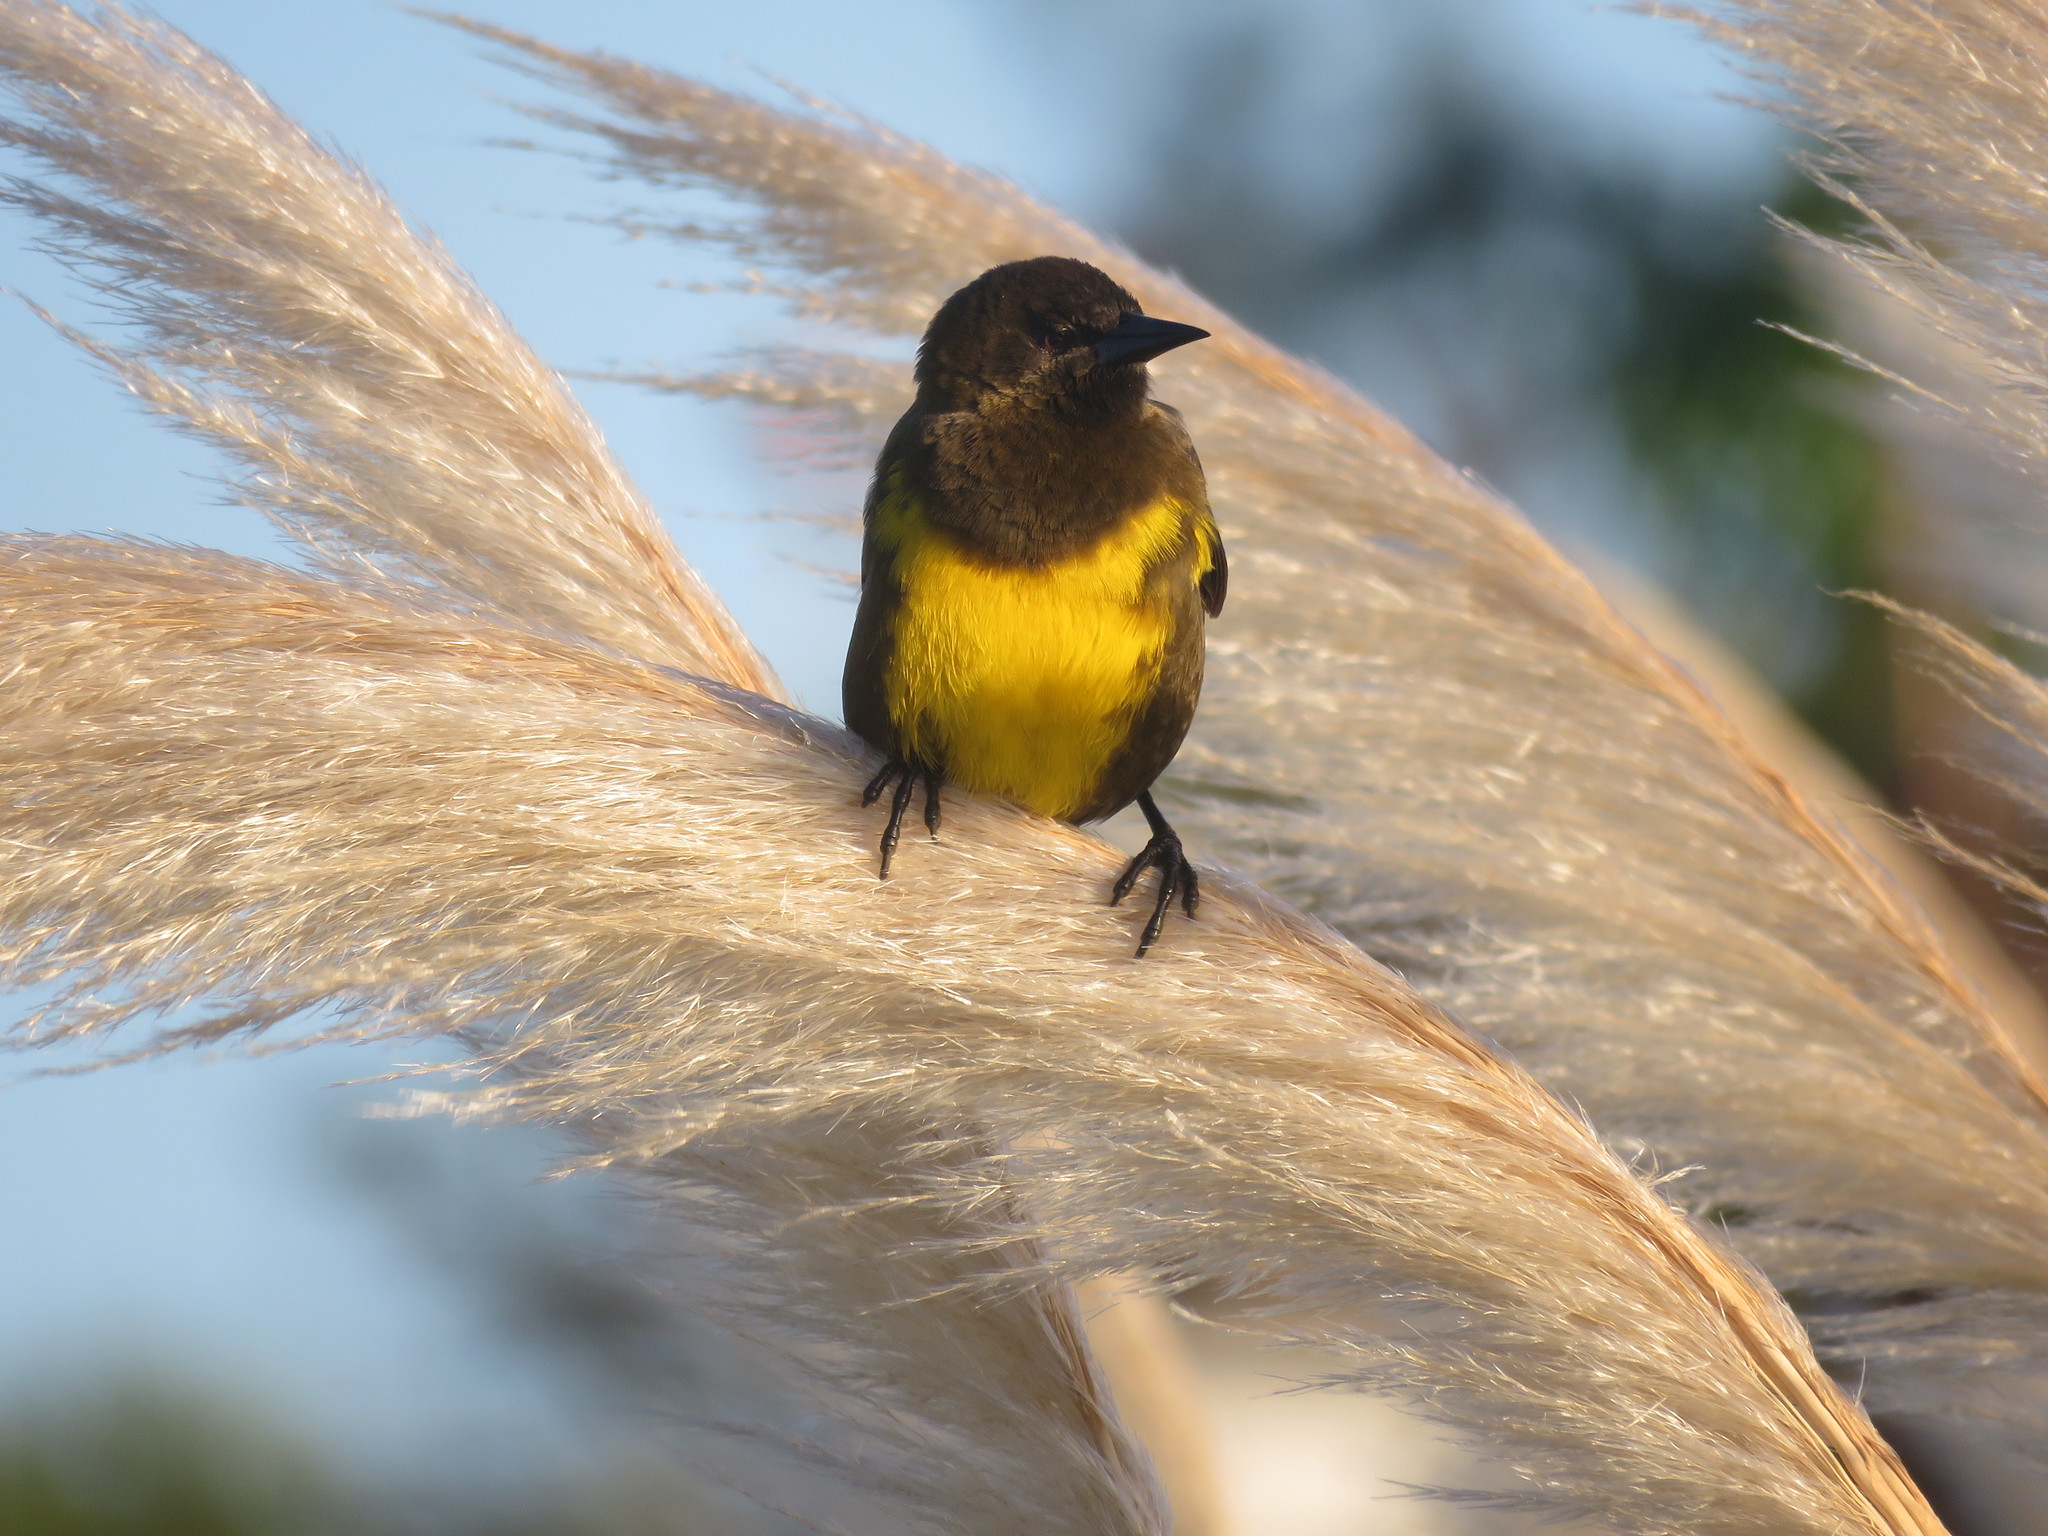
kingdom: Animalia
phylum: Chordata
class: Aves
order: Passeriformes
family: Icteridae
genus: Pseudoleistes
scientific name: Pseudoleistes virescens
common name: Brown-and-yellow marshbird
